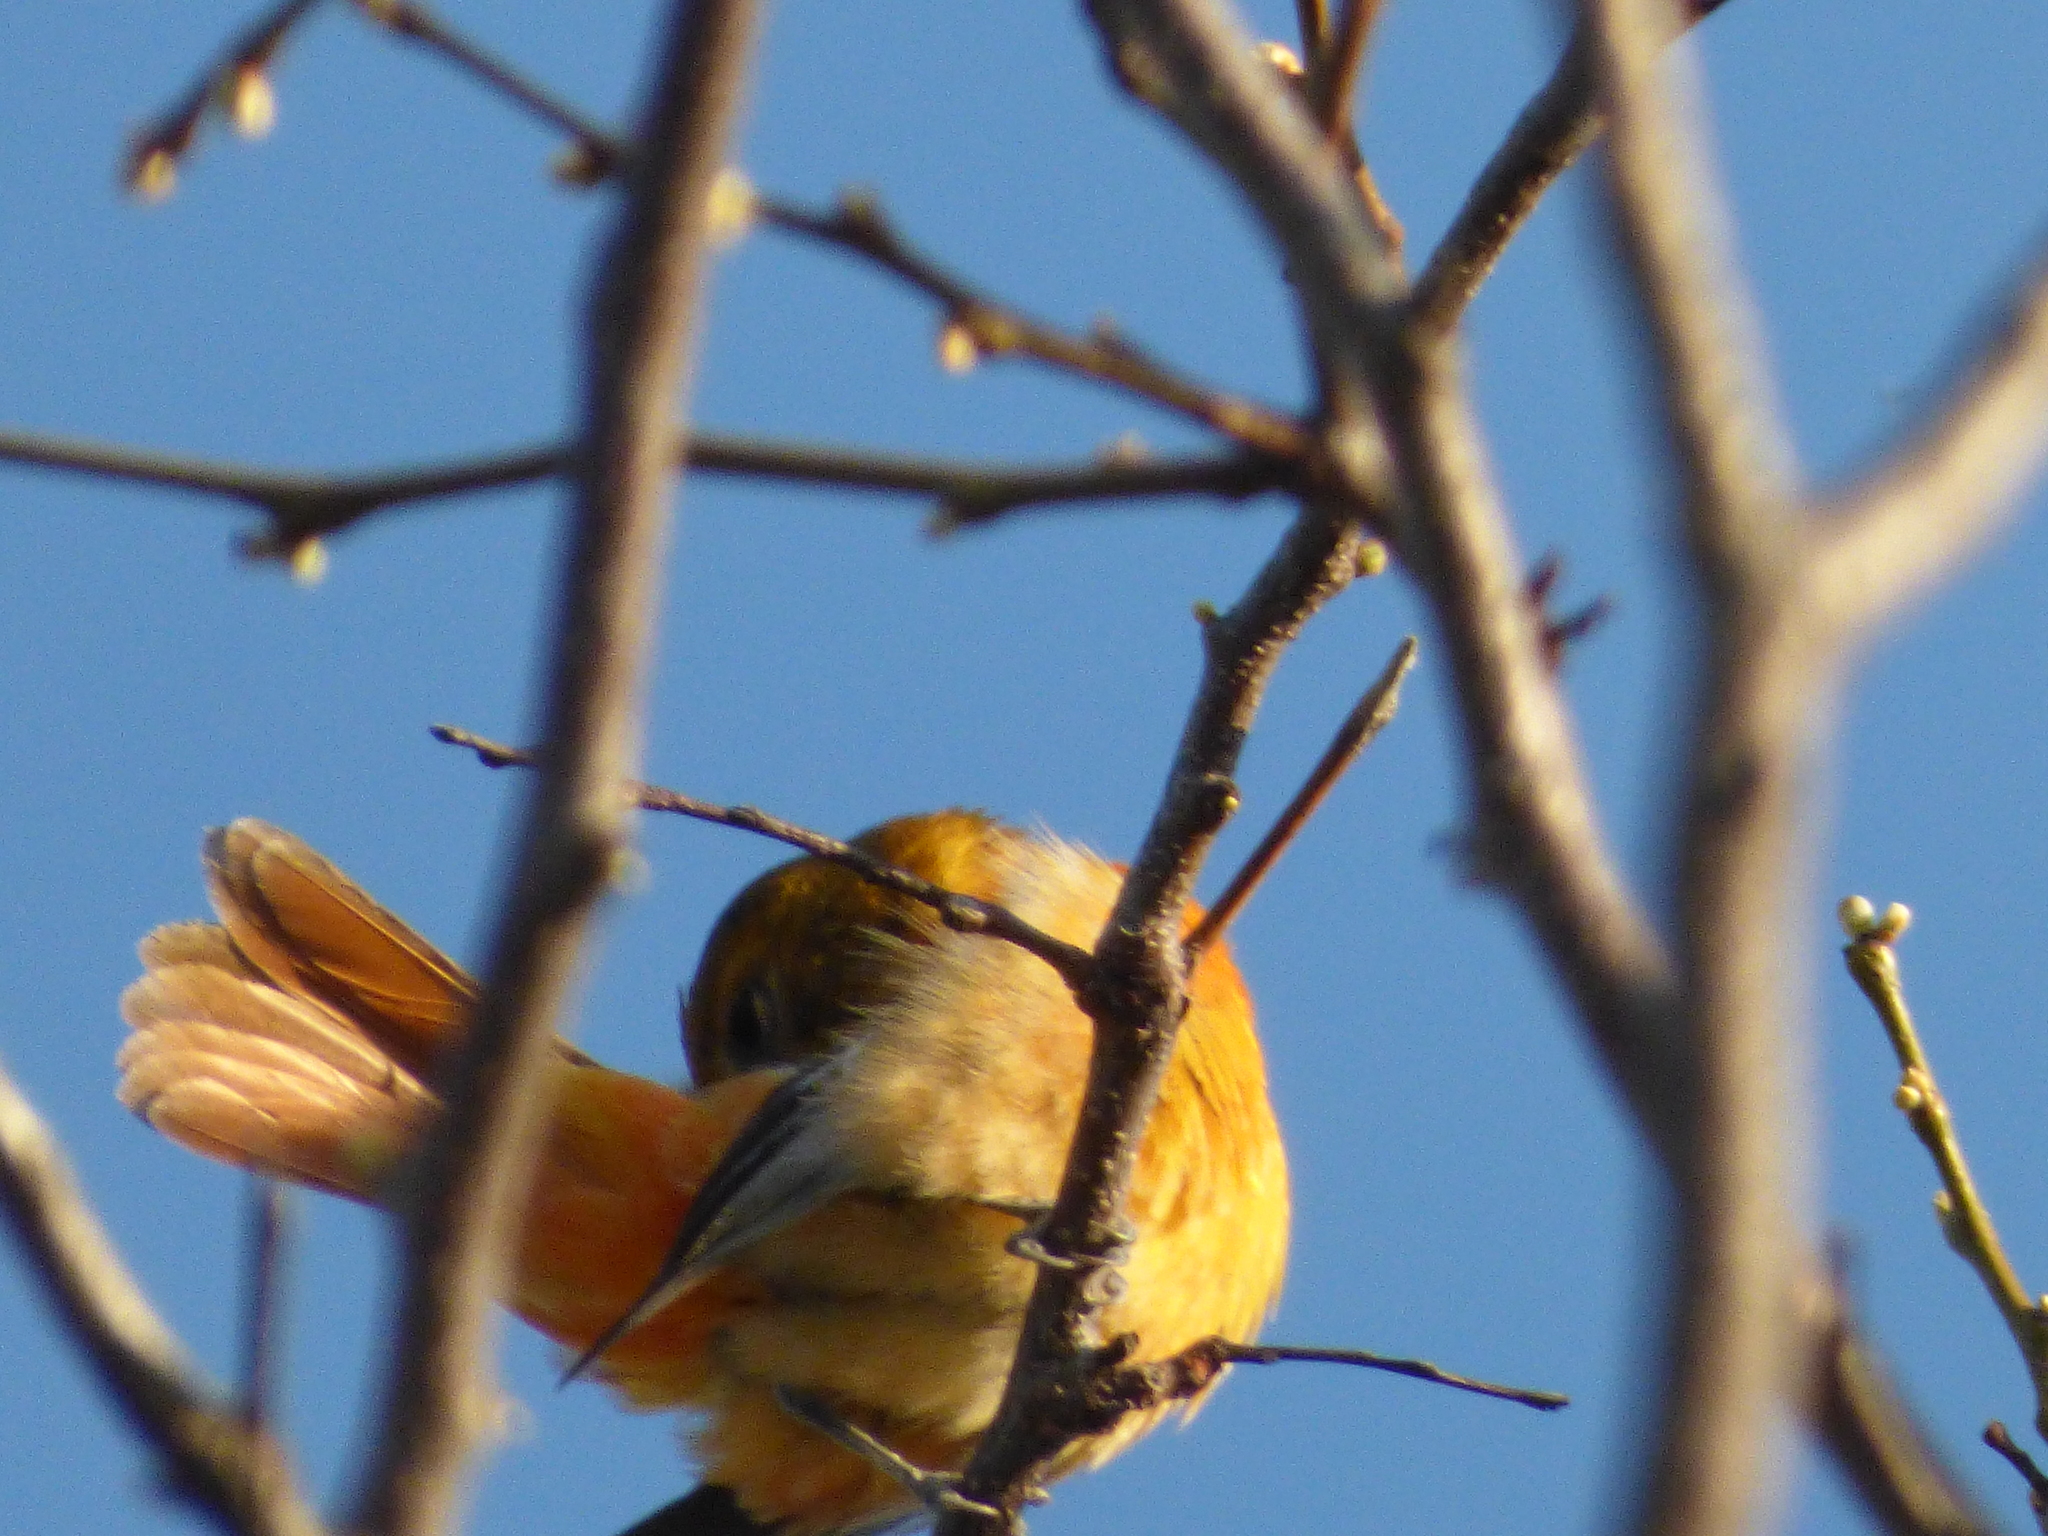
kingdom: Animalia
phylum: Chordata
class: Aves
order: Passeriformes
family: Icteridae
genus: Icterus
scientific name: Icterus galbula
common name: Baltimore oriole
